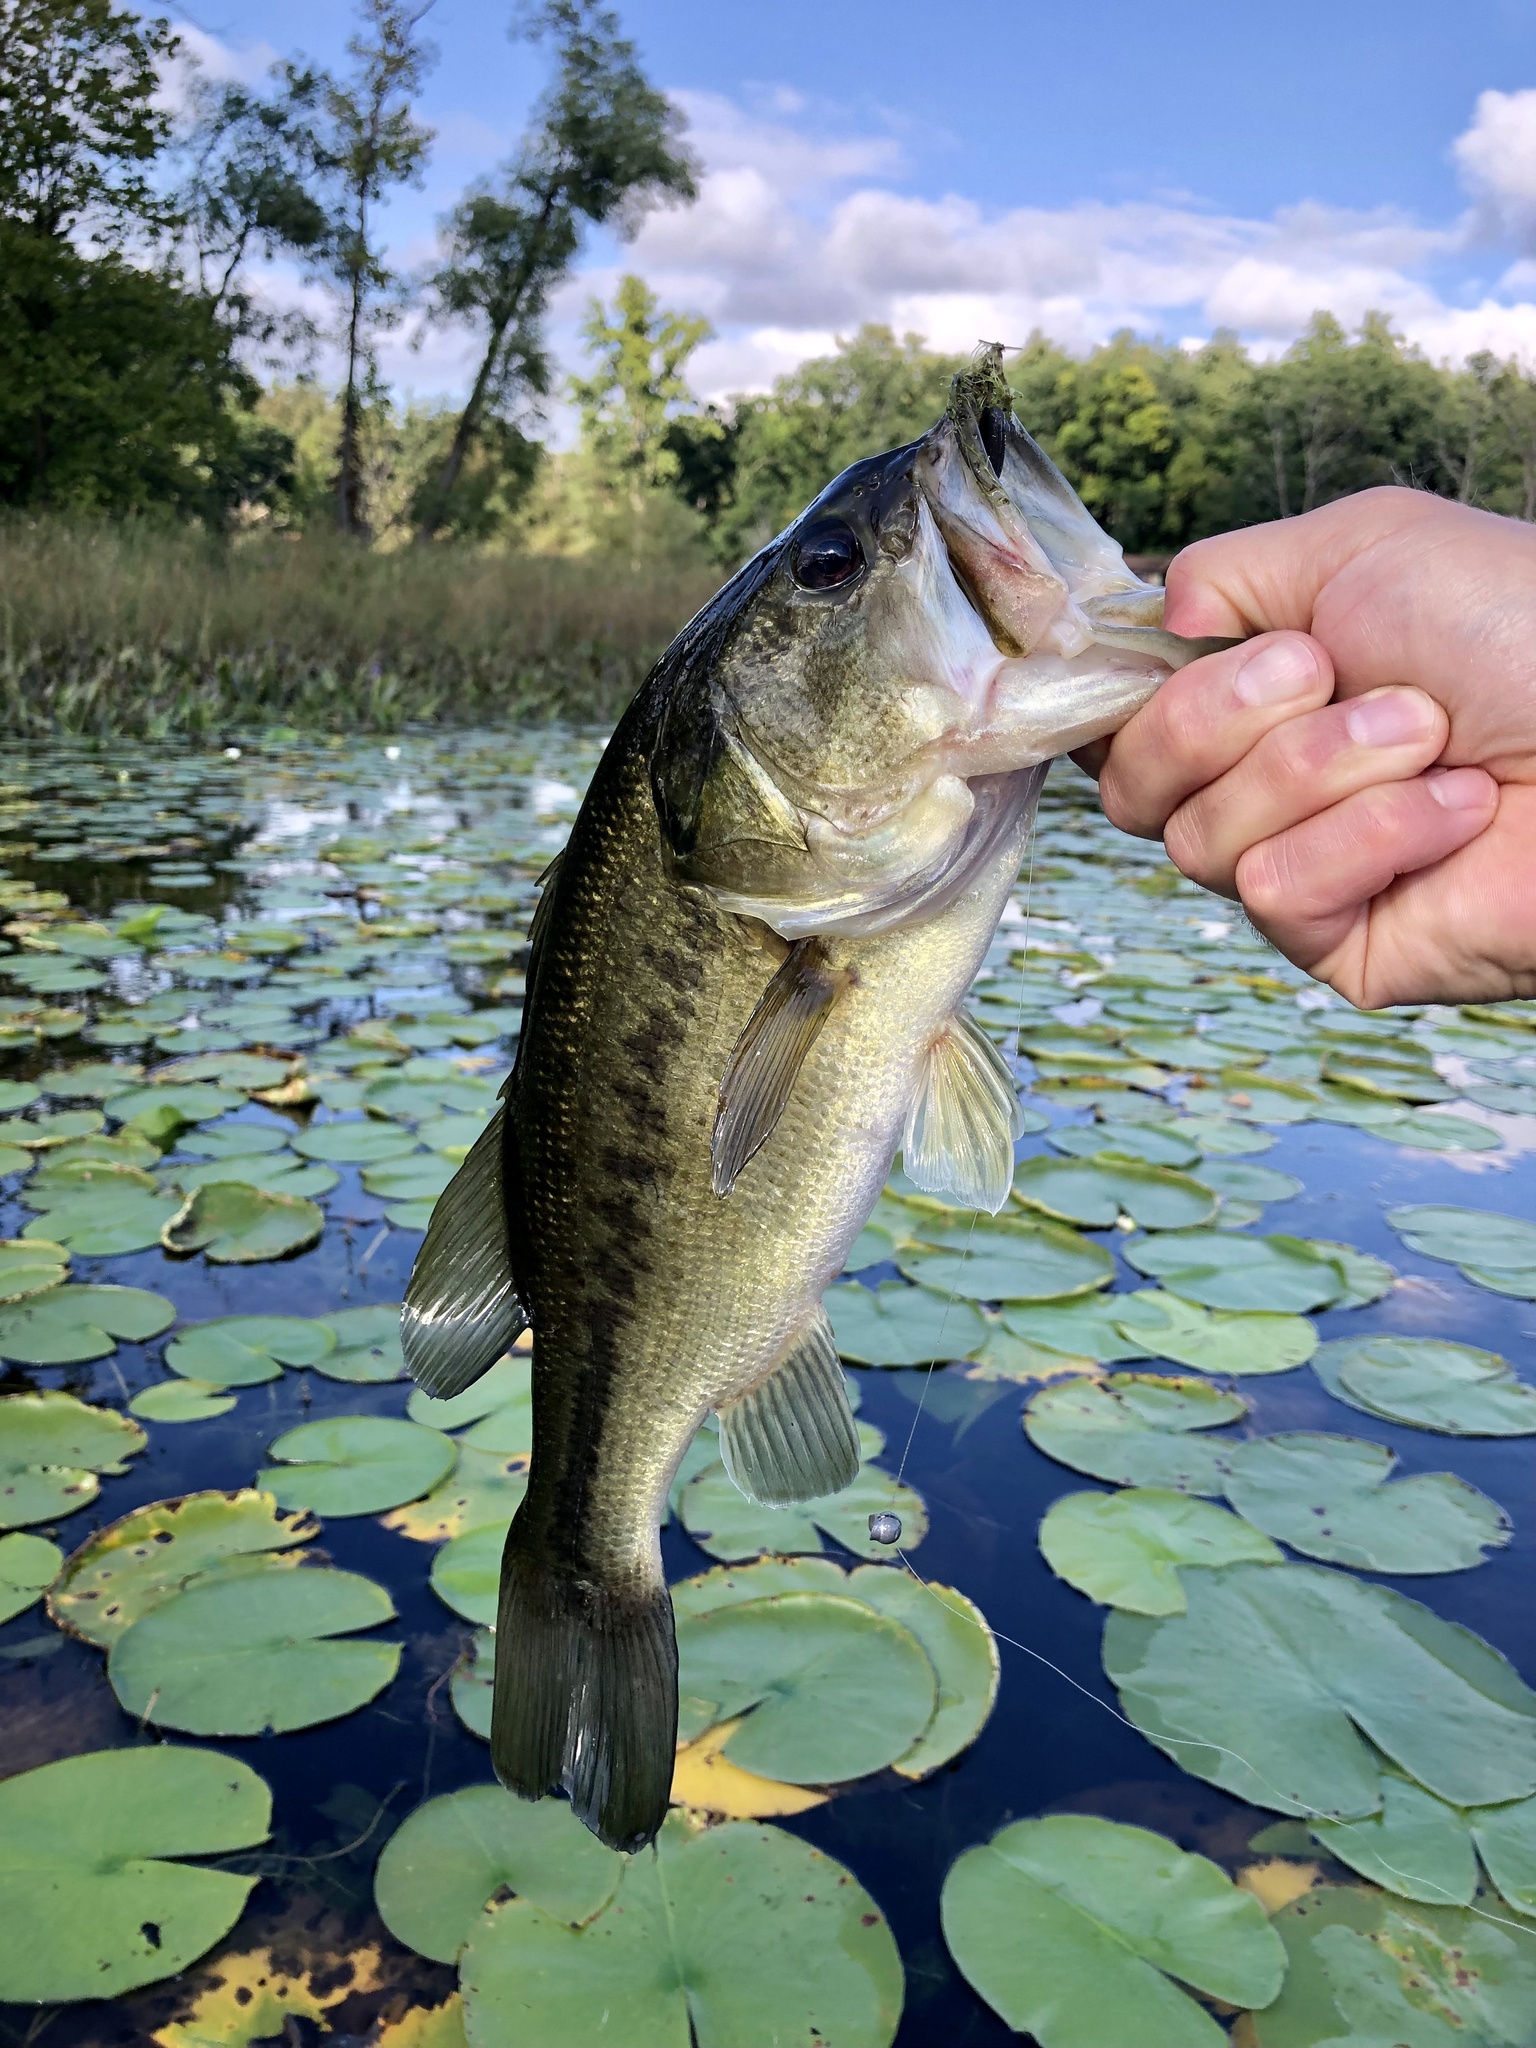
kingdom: Animalia
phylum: Chordata
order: Perciformes
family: Centrarchidae
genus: Micropterus
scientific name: Micropterus
